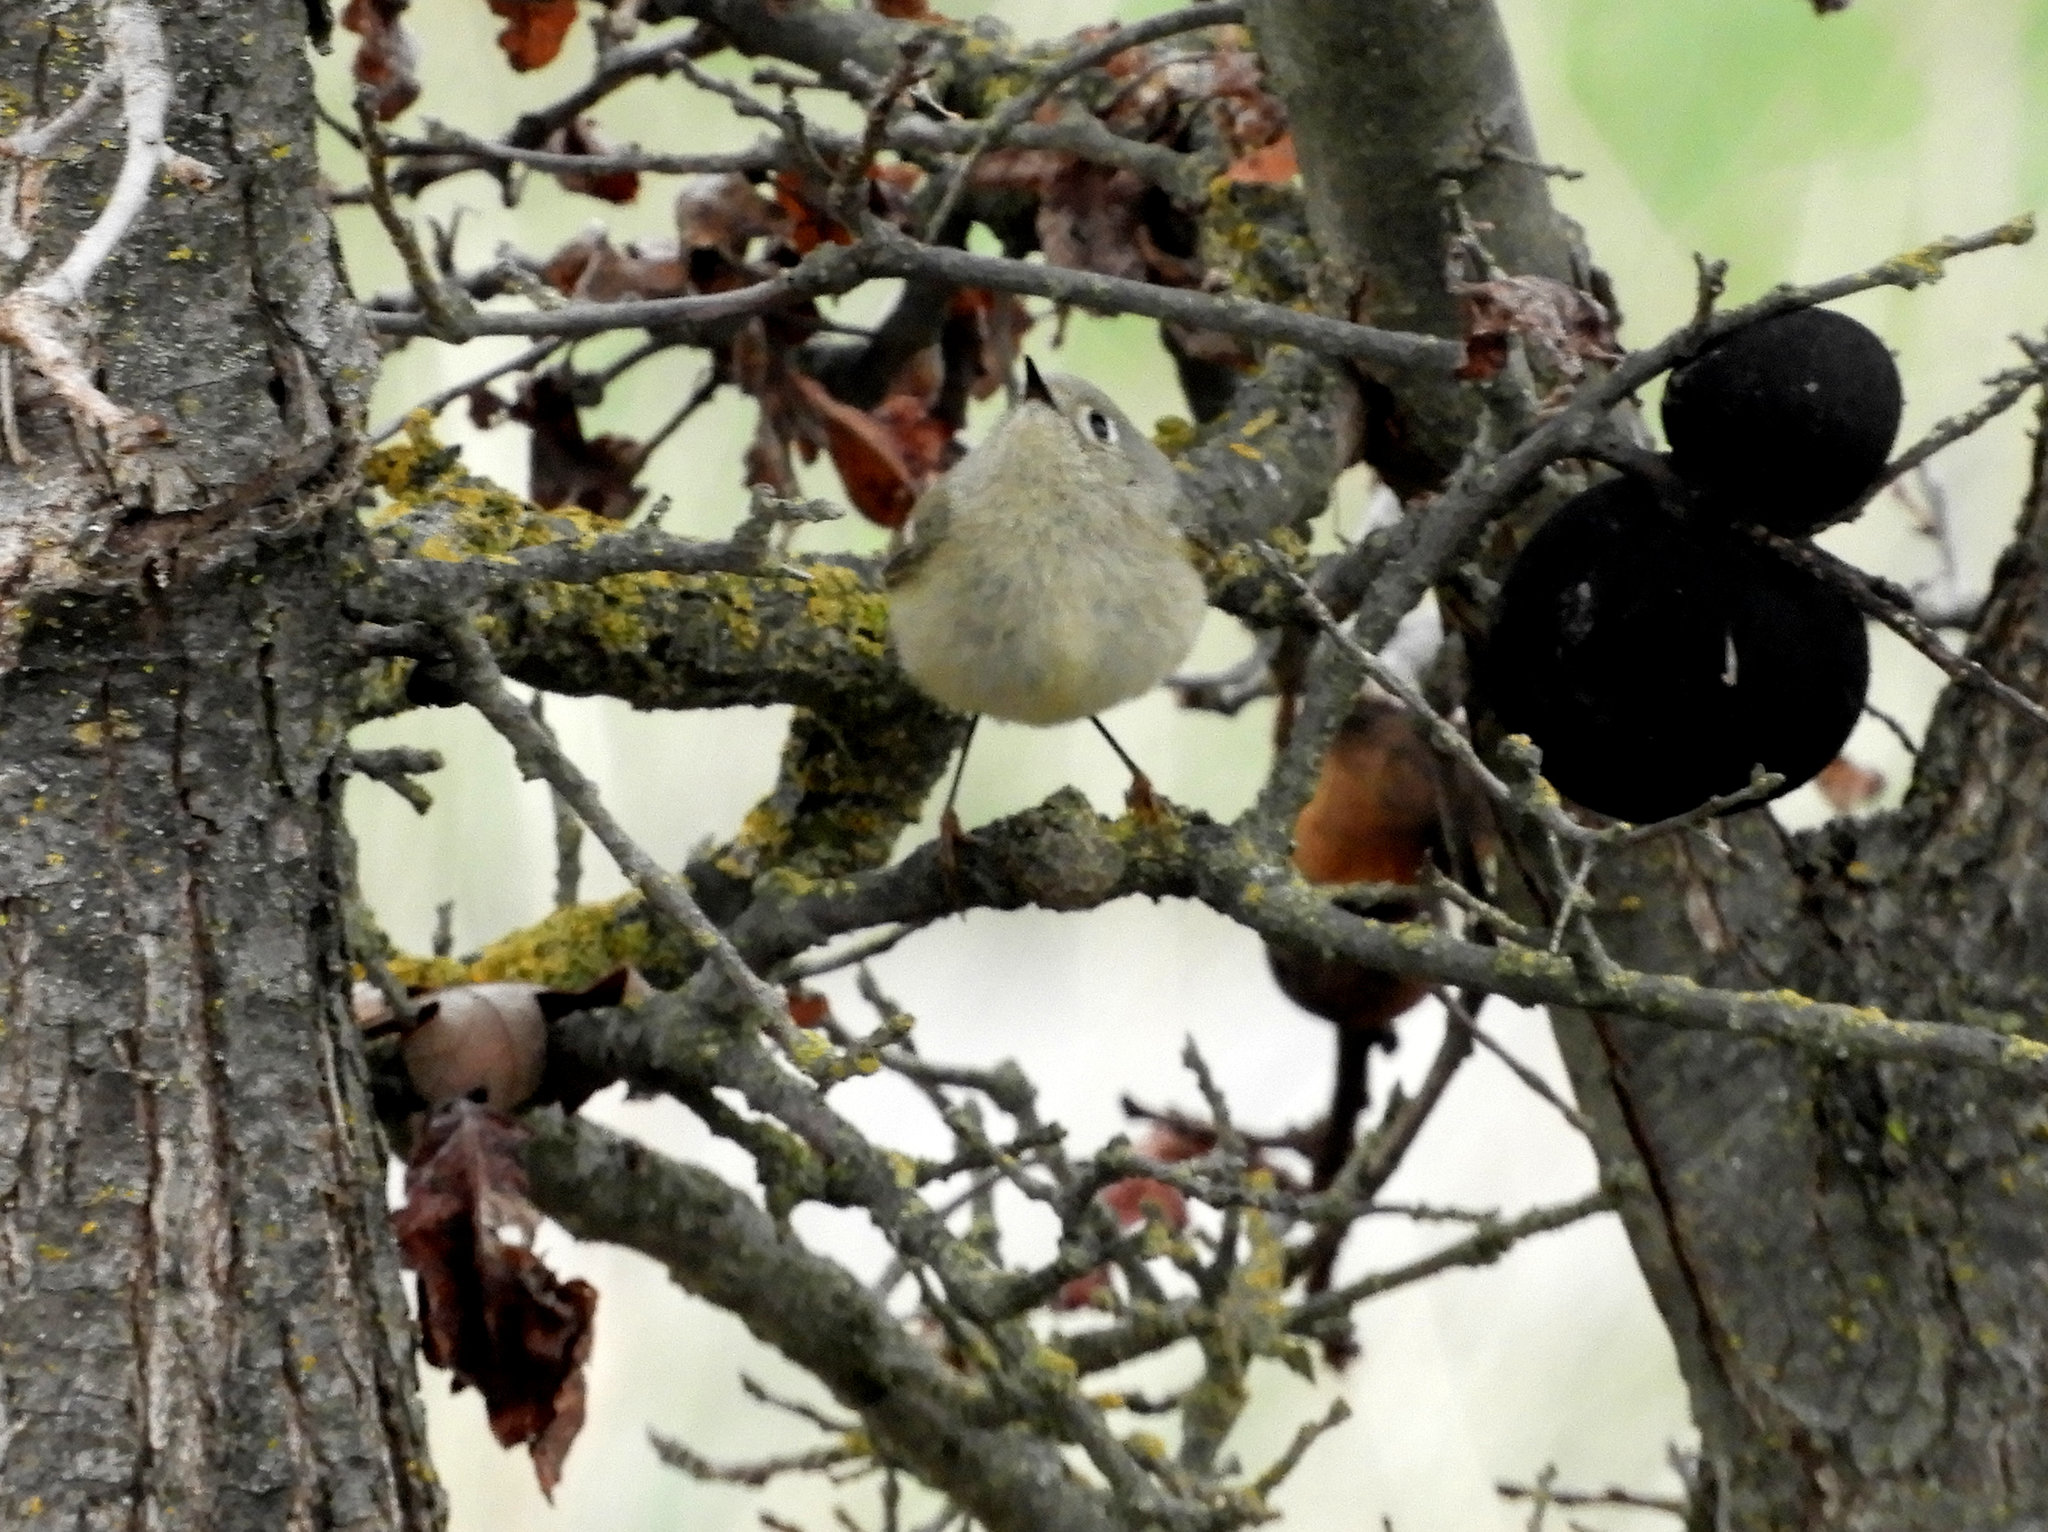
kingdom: Animalia
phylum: Chordata
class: Aves
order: Passeriformes
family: Regulidae
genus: Regulus
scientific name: Regulus calendula
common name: Ruby-crowned kinglet
